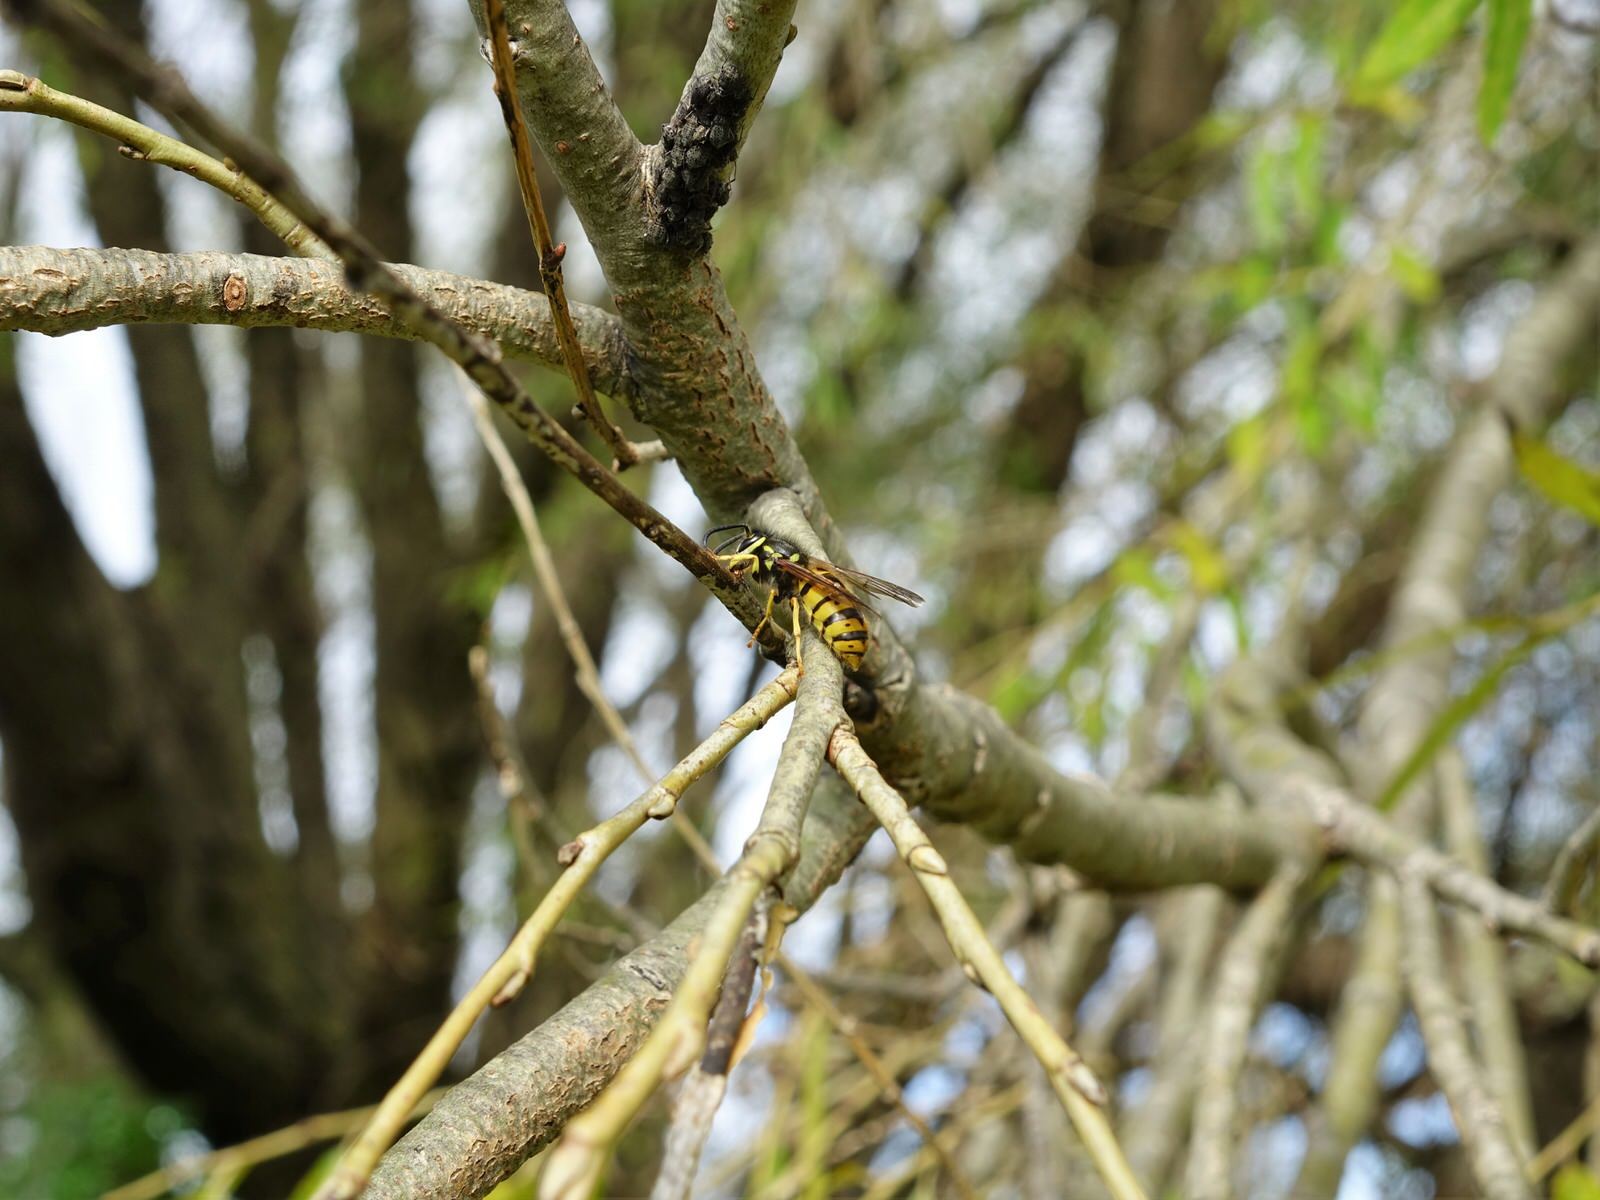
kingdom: Animalia
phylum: Arthropoda
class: Insecta
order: Hymenoptera
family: Vespidae
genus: Vespula
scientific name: Vespula germanica
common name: German wasp
